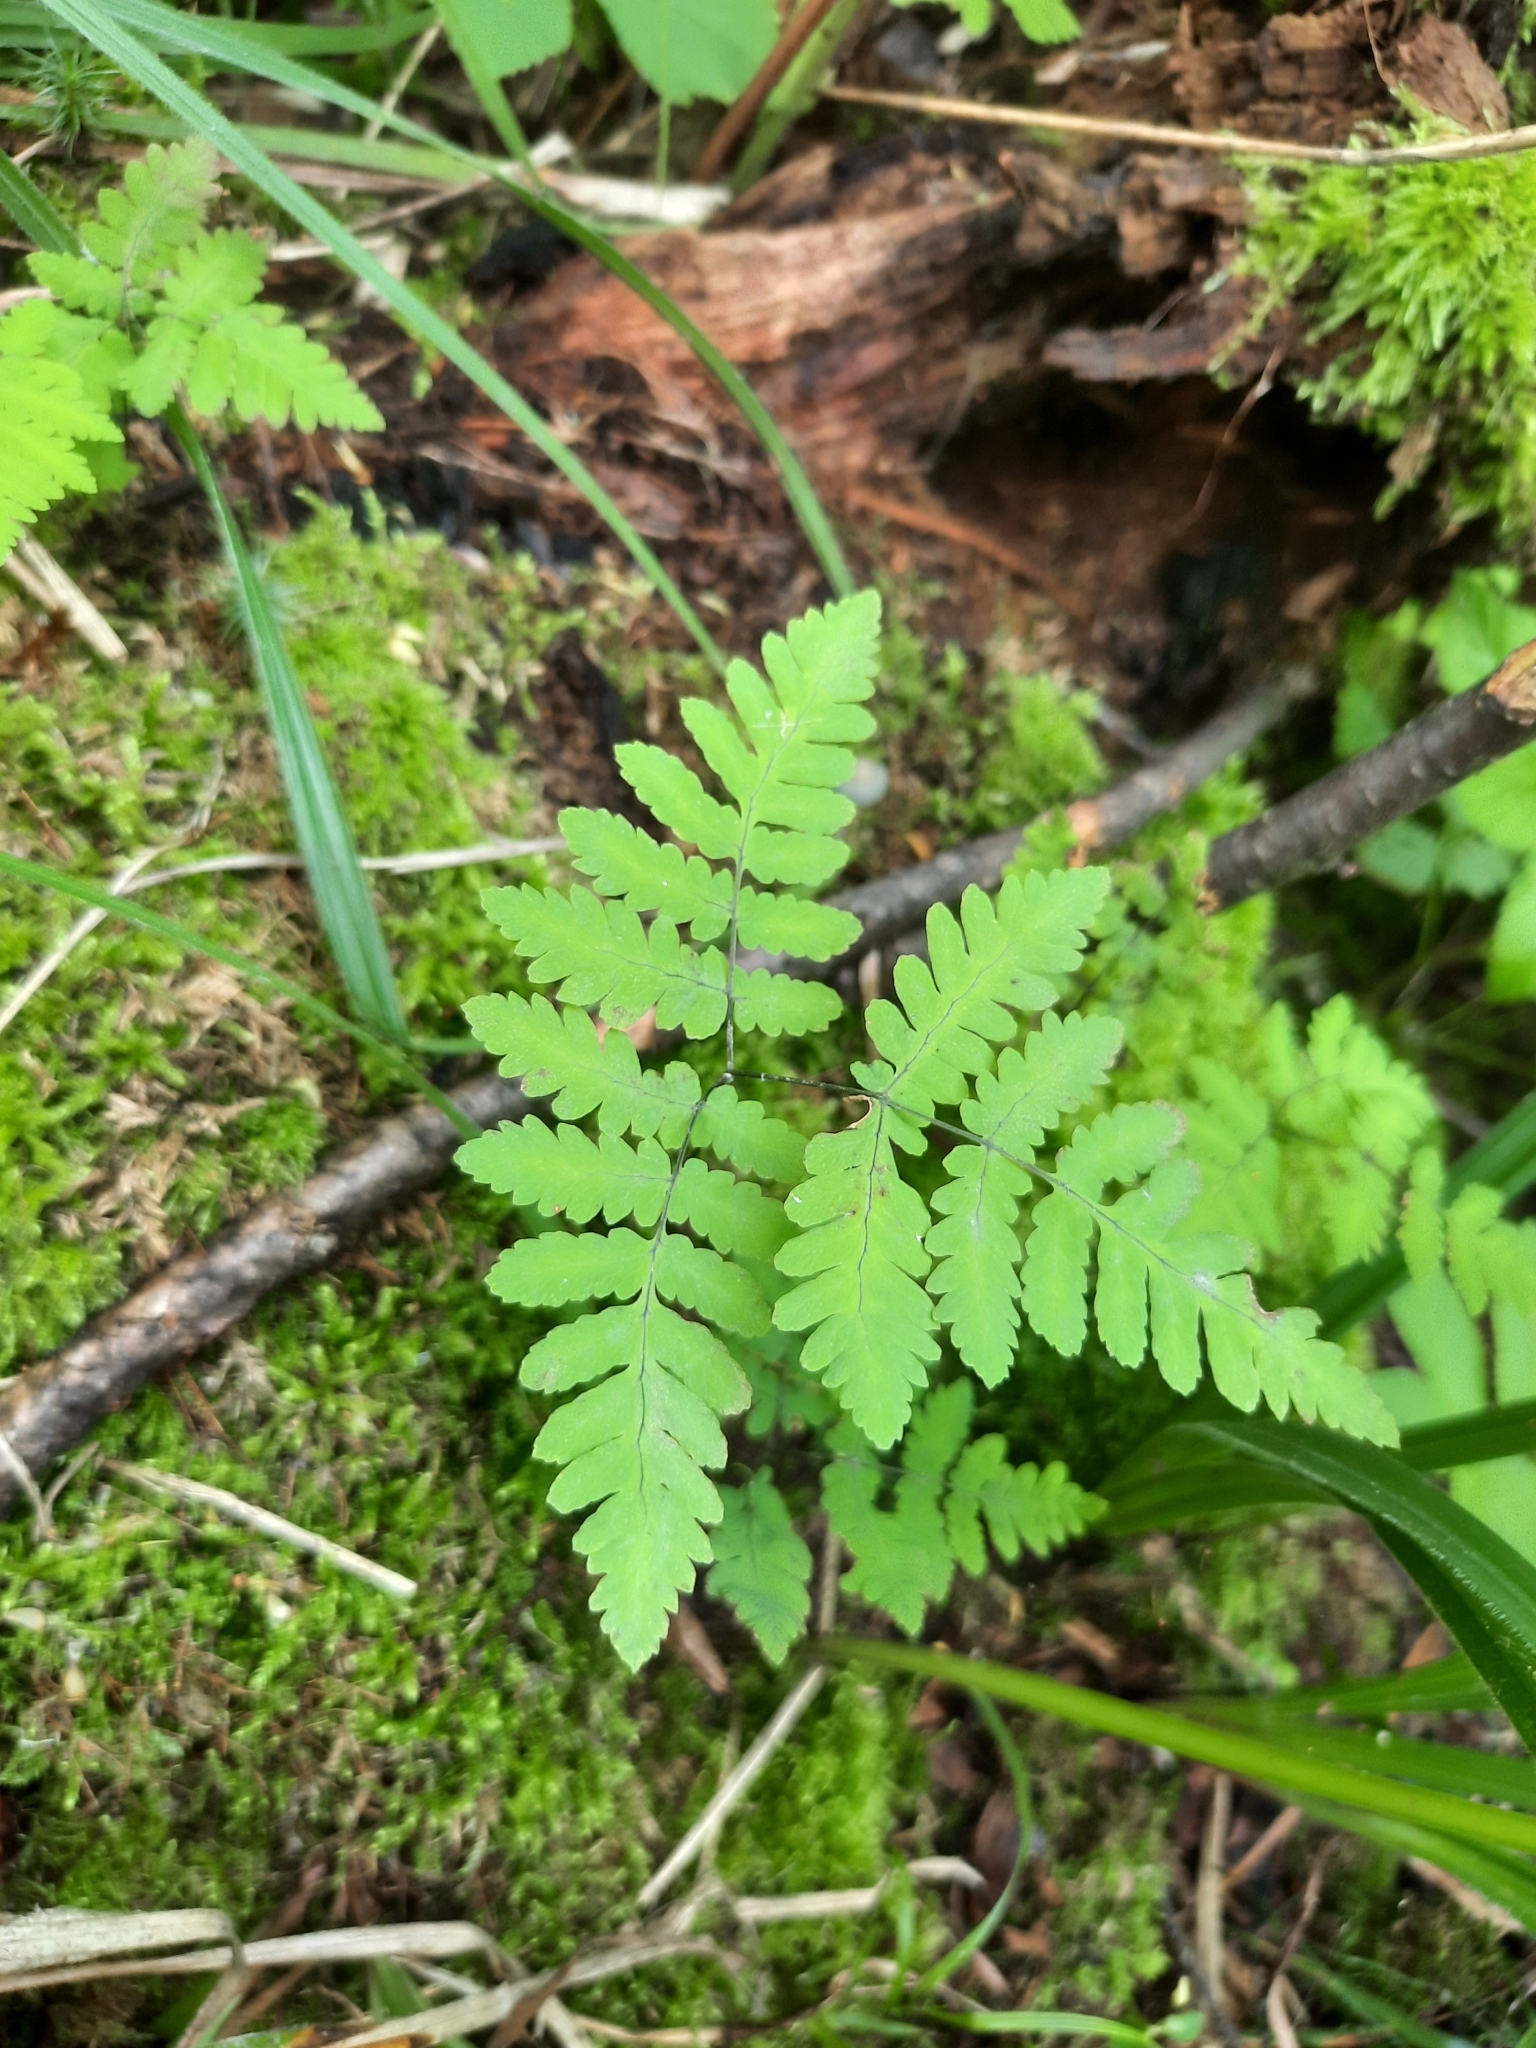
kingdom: Plantae
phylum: Tracheophyta
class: Polypodiopsida
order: Polypodiales
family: Cystopteridaceae
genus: Gymnocarpium
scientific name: Gymnocarpium dryopteris
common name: Oak fern
